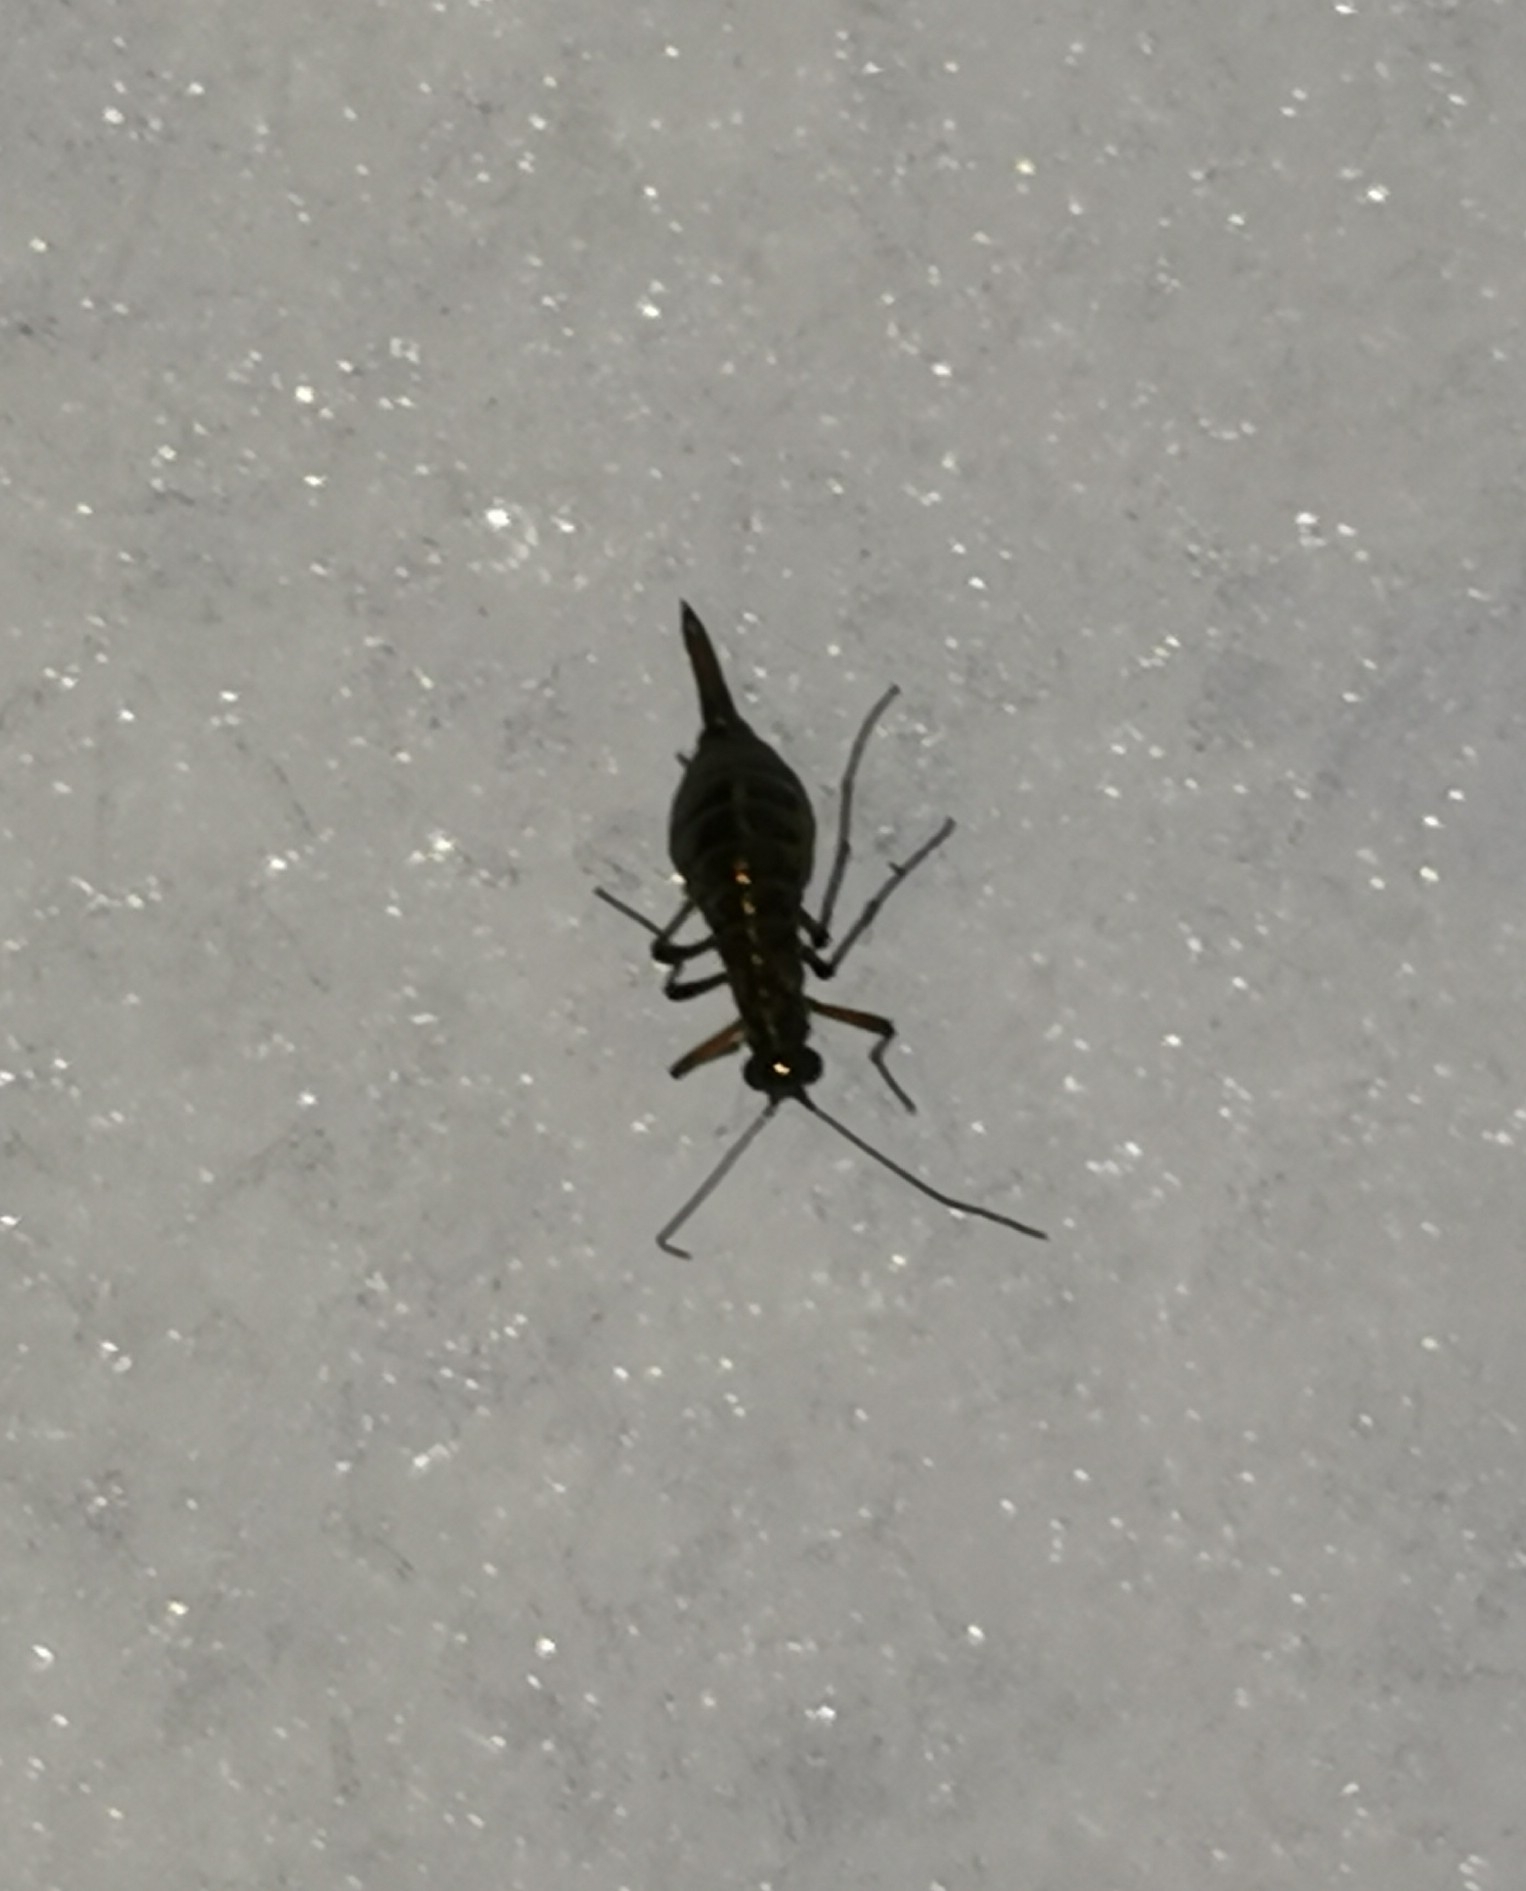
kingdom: Animalia
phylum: Arthropoda
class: Insecta
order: Mecoptera
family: Boreidae
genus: Boreus
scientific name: Boreus westwoodi
